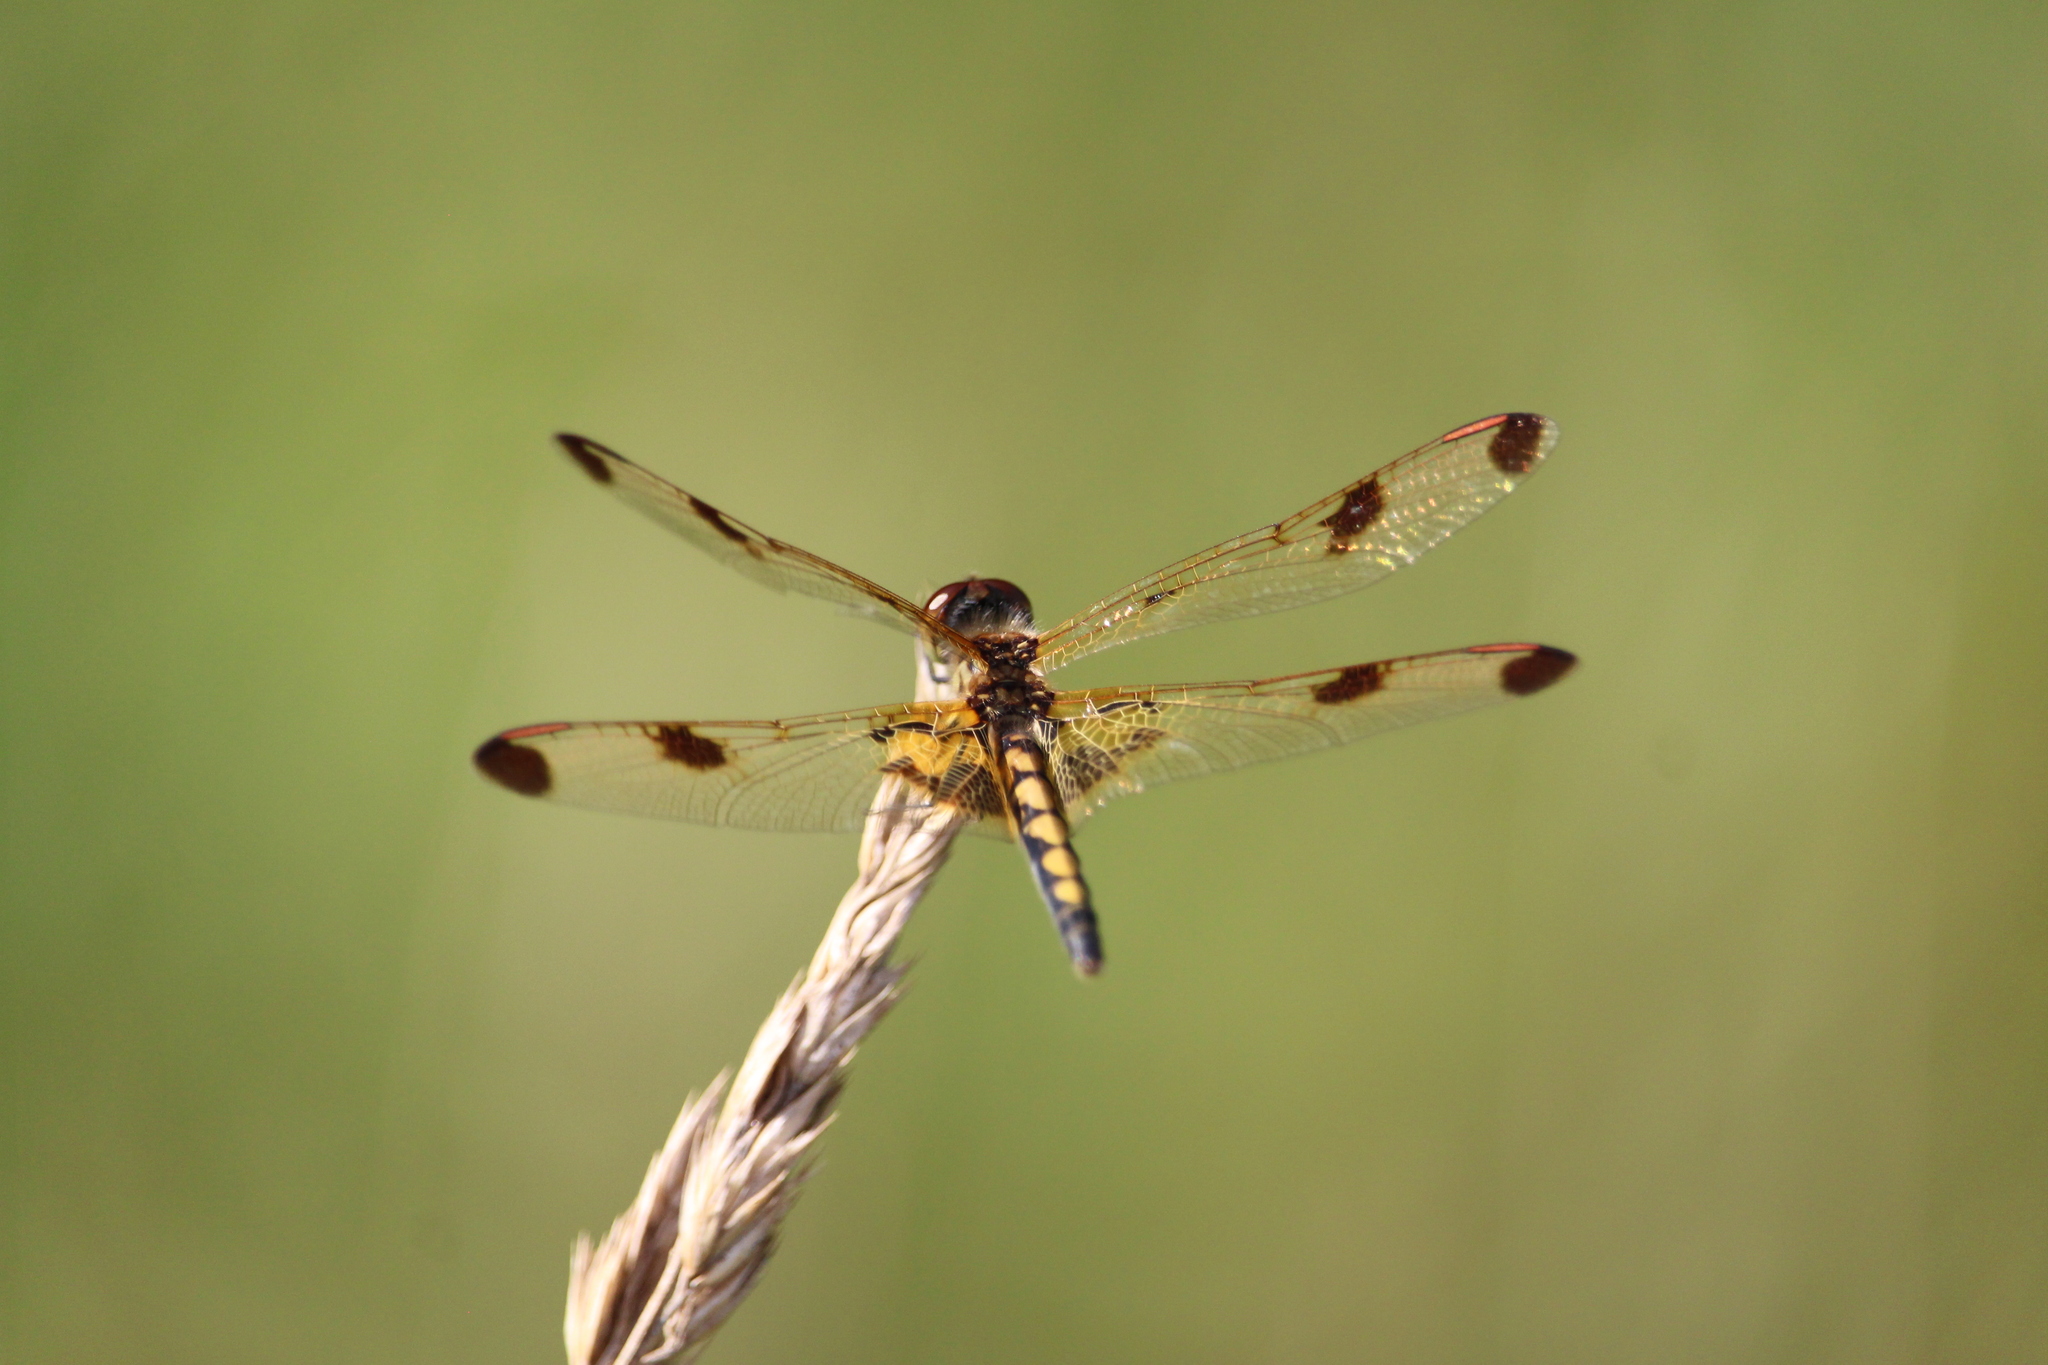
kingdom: Animalia
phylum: Arthropoda
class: Insecta
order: Odonata
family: Libellulidae
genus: Celithemis
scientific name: Celithemis elisa
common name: Calico pennant
